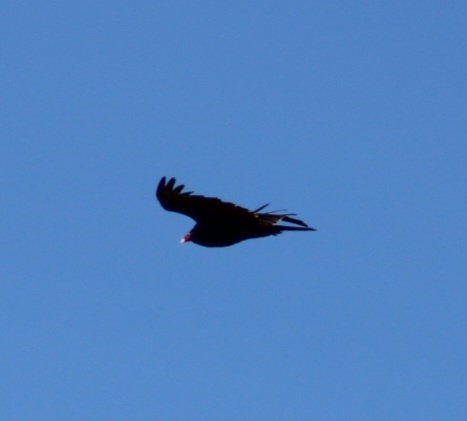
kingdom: Animalia
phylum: Chordata
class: Aves
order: Accipitriformes
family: Cathartidae
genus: Cathartes
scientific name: Cathartes aura
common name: Turkey vulture
